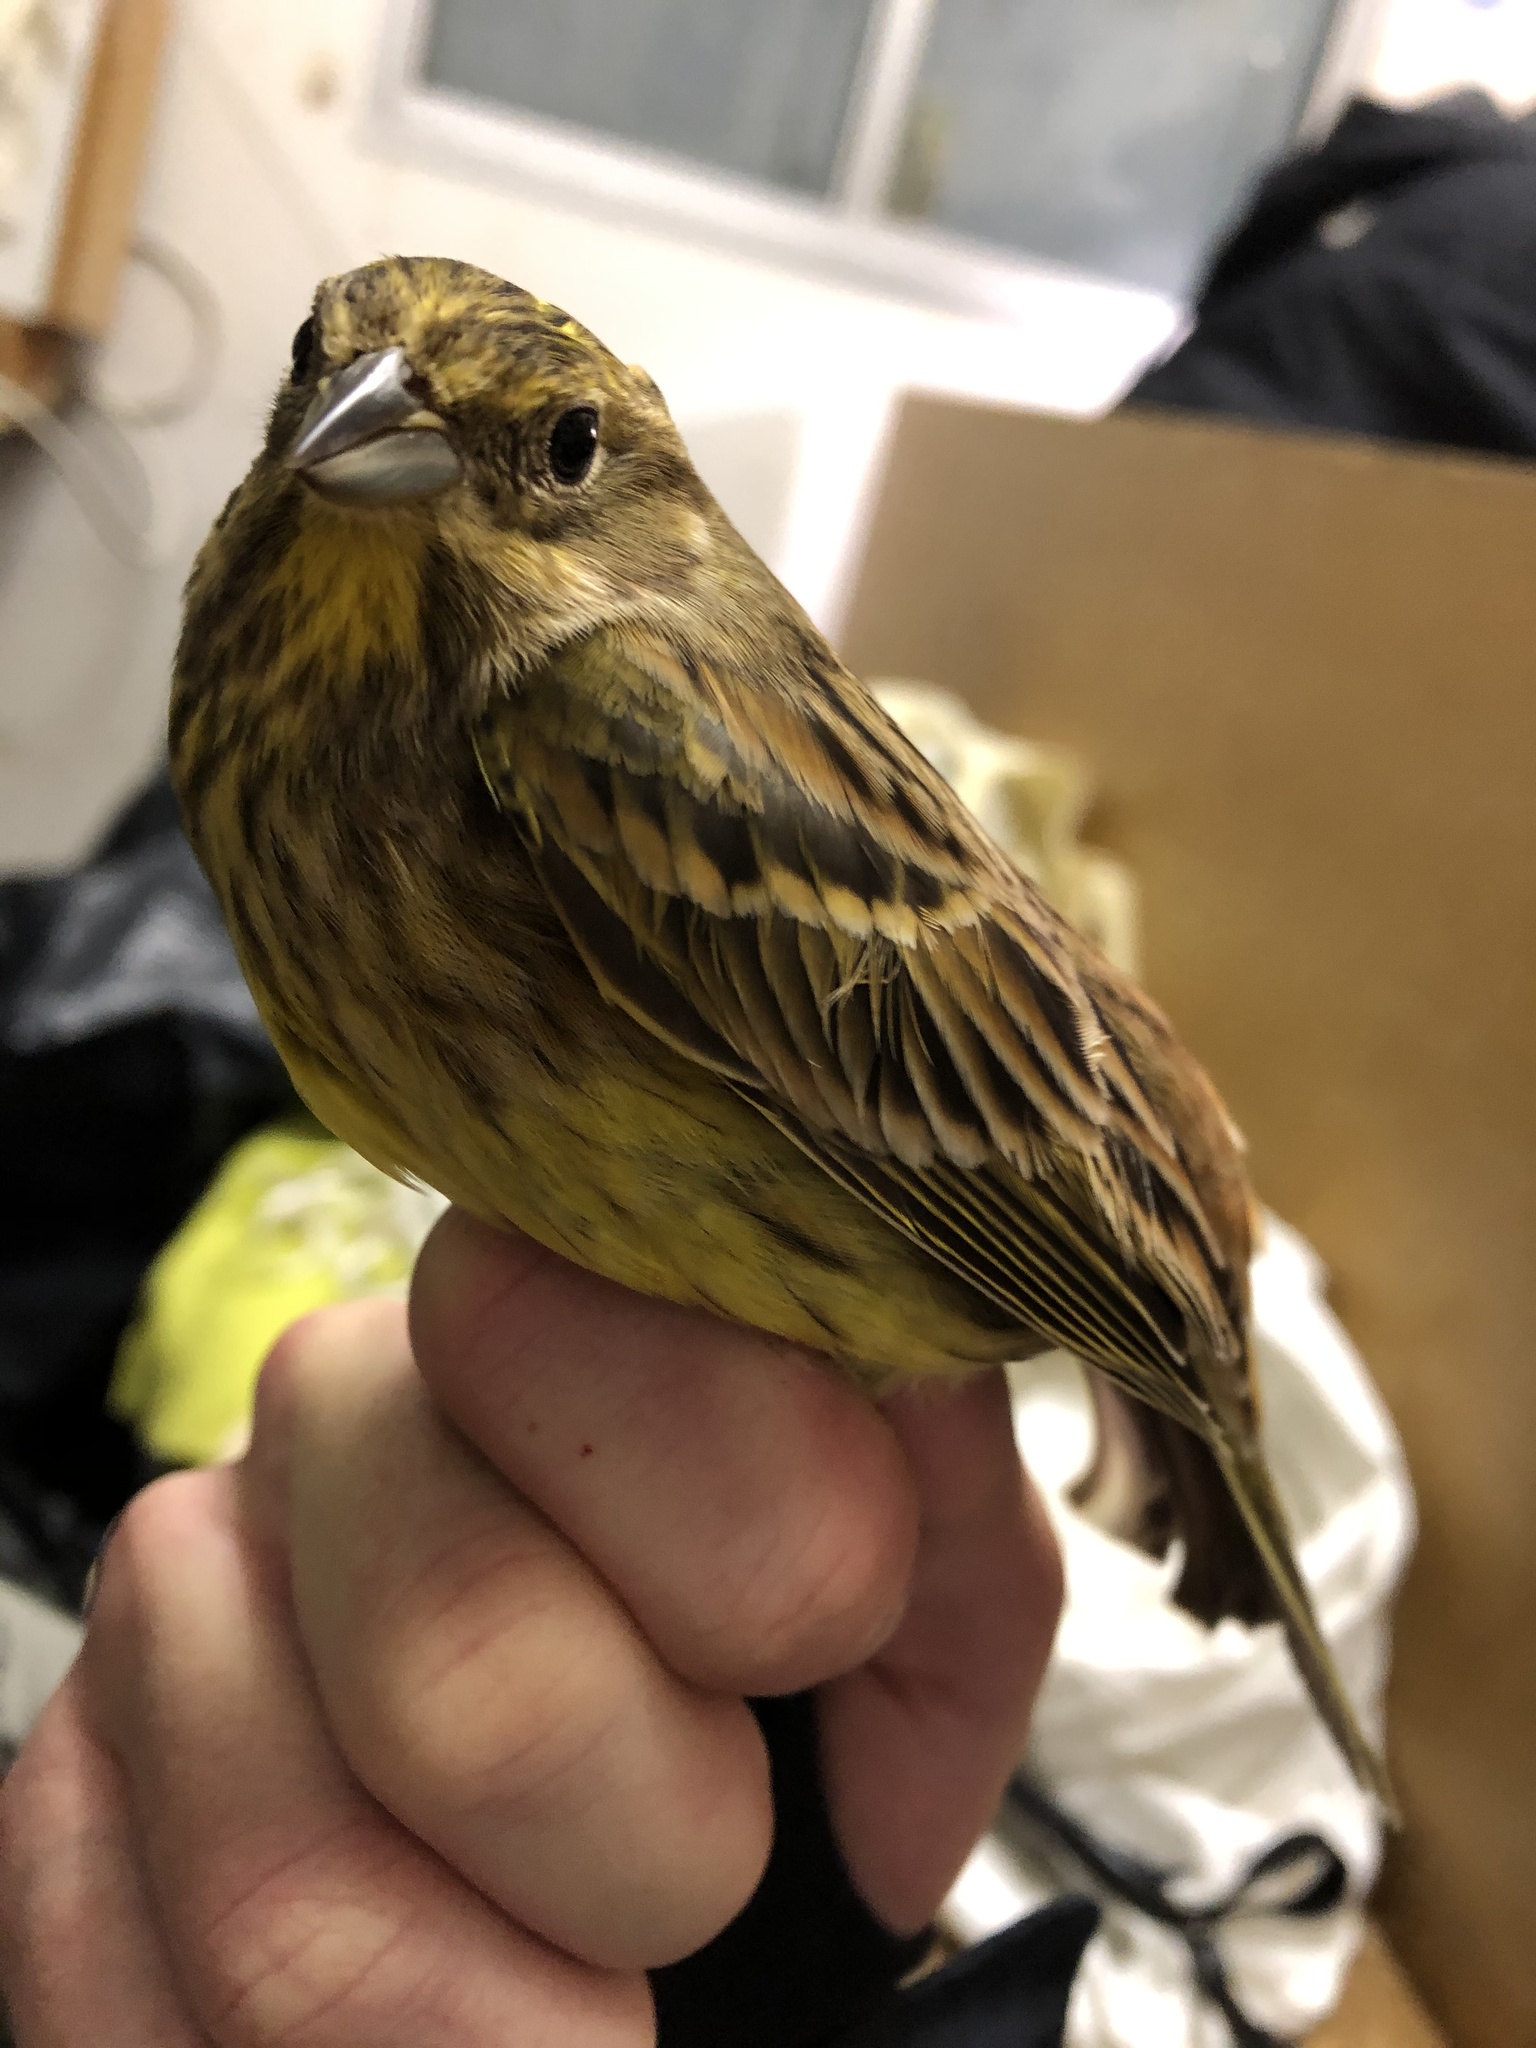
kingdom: Animalia
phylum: Chordata
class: Aves
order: Passeriformes
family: Emberizidae
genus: Emberiza
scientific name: Emberiza citrinella
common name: Yellowhammer
